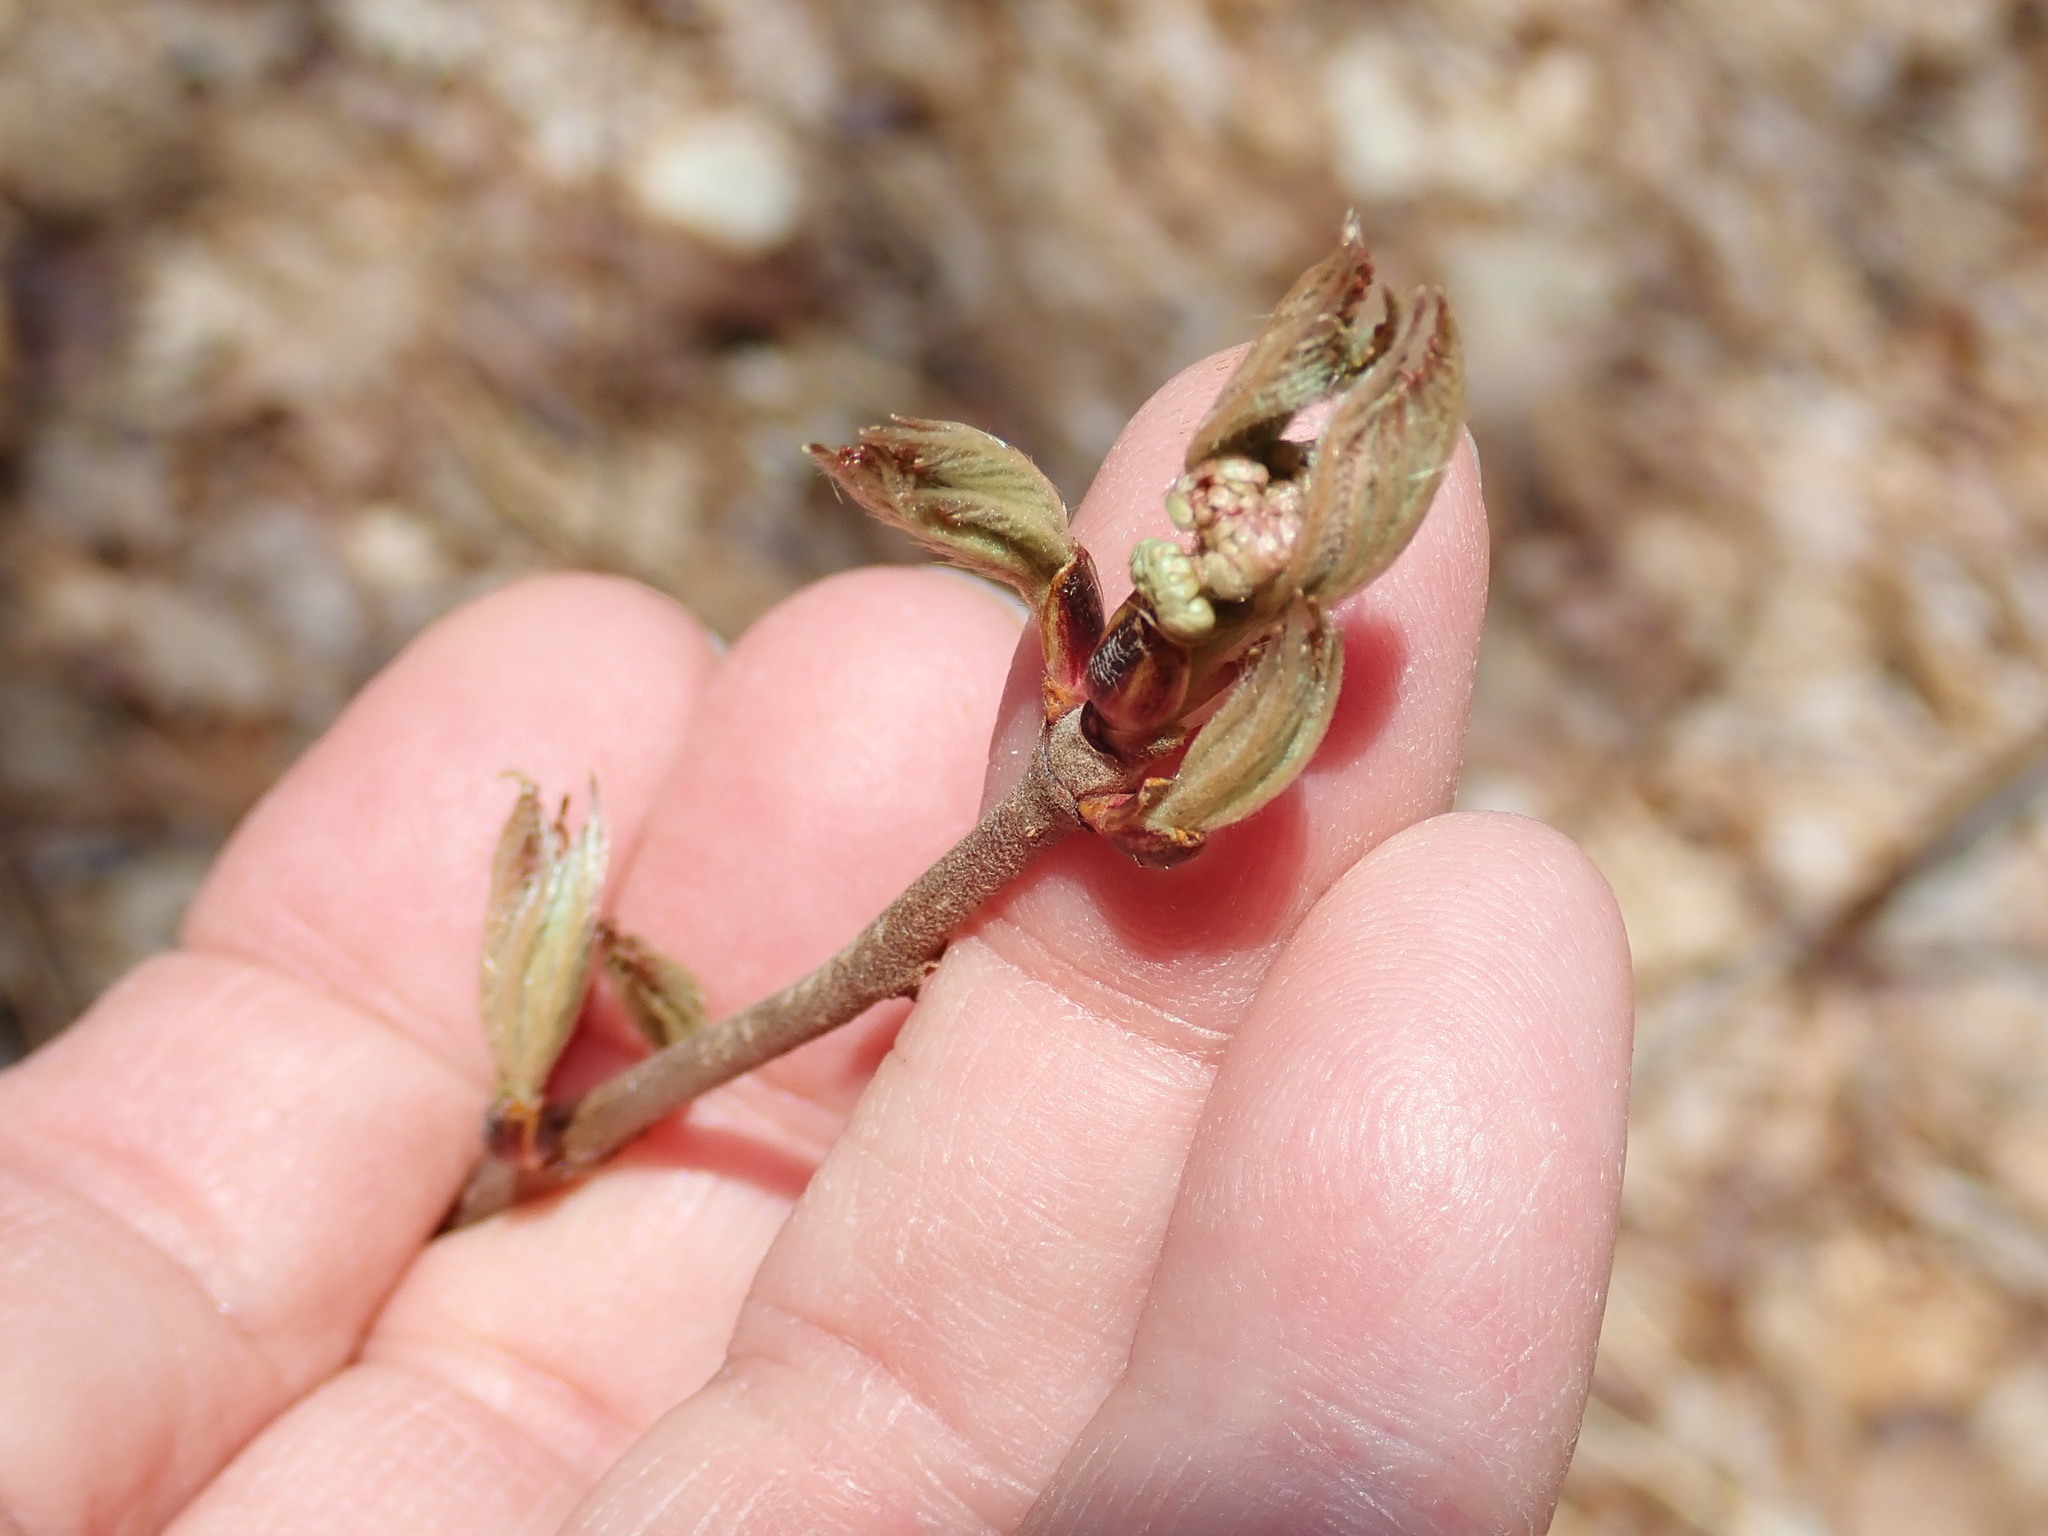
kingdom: Plantae
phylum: Tracheophyta
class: Magnoliopsida
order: Dipsacales
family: Viburnaceae
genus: Viburnum
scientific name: Viburnum acerifolium
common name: Dockmackie
